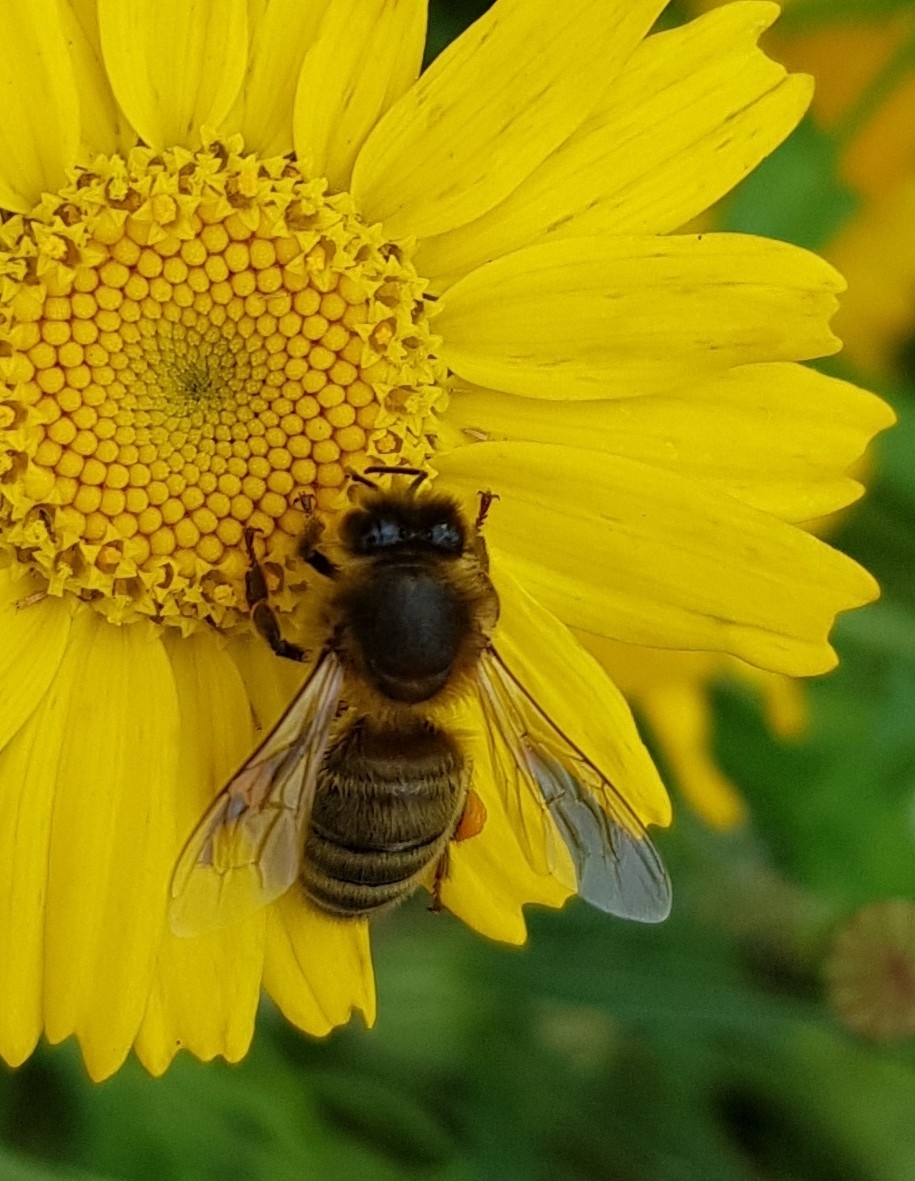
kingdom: Animalia
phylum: Arthropoda
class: Insecta
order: Hymenoptera
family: Apidae
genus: Apis
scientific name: Apis mellifera
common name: Honey bee
